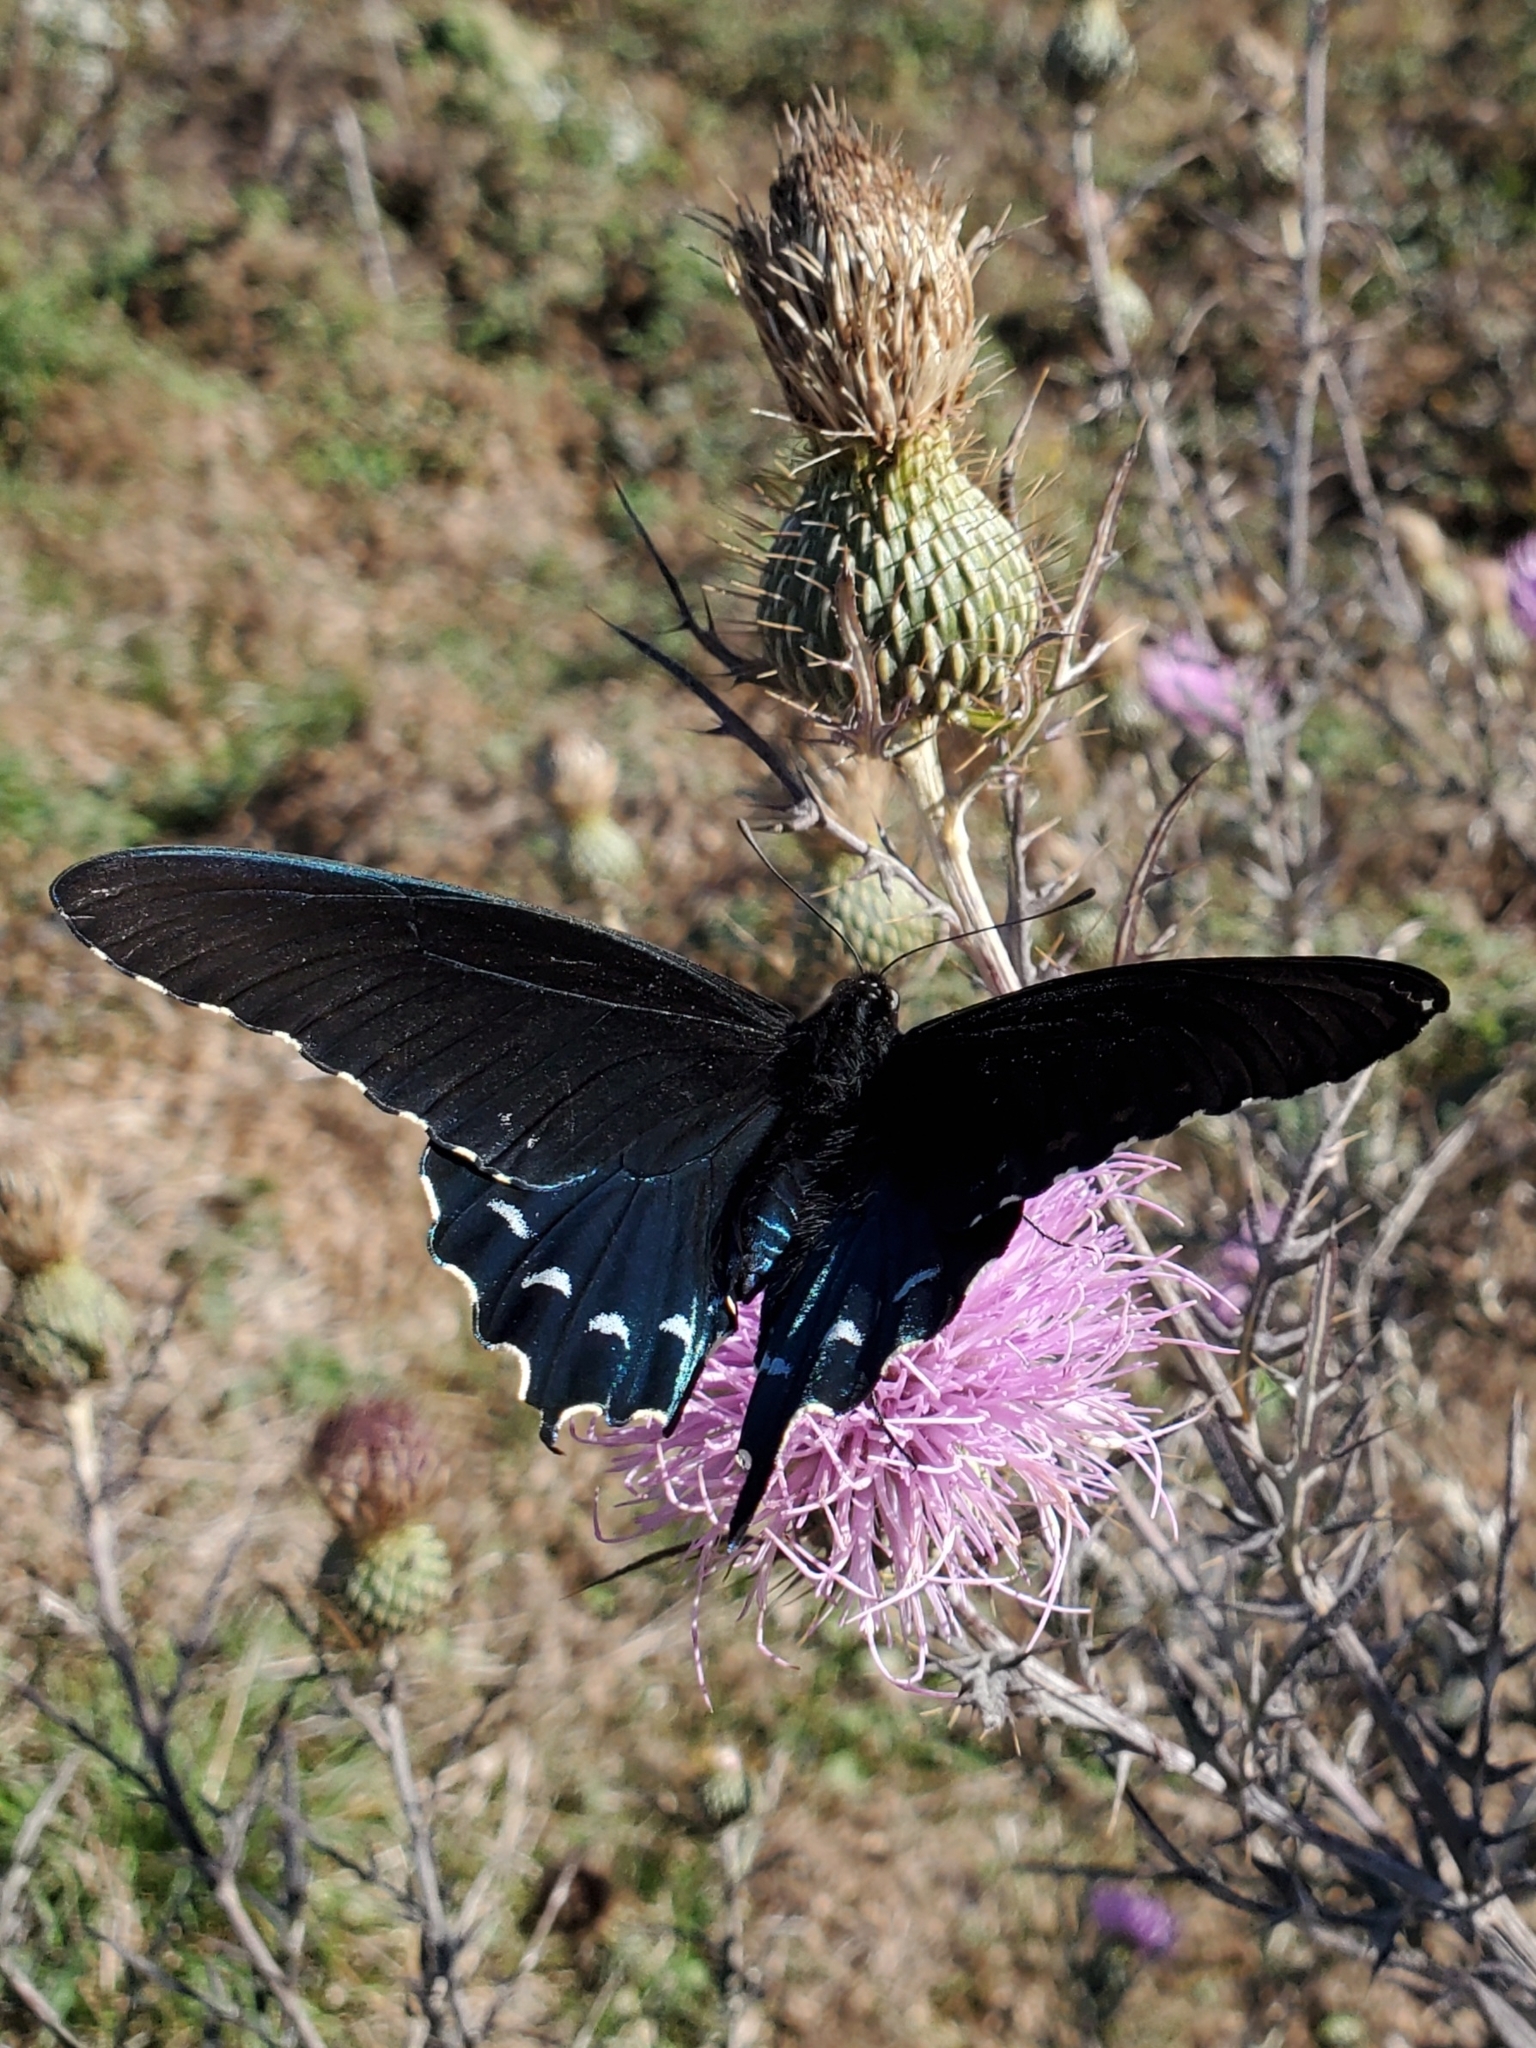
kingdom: Animalia
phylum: Arthropoda
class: Insecta
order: Lepidoptera
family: Papilionidae
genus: Battus
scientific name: Battus philenor
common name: Pipevine swallowtail
